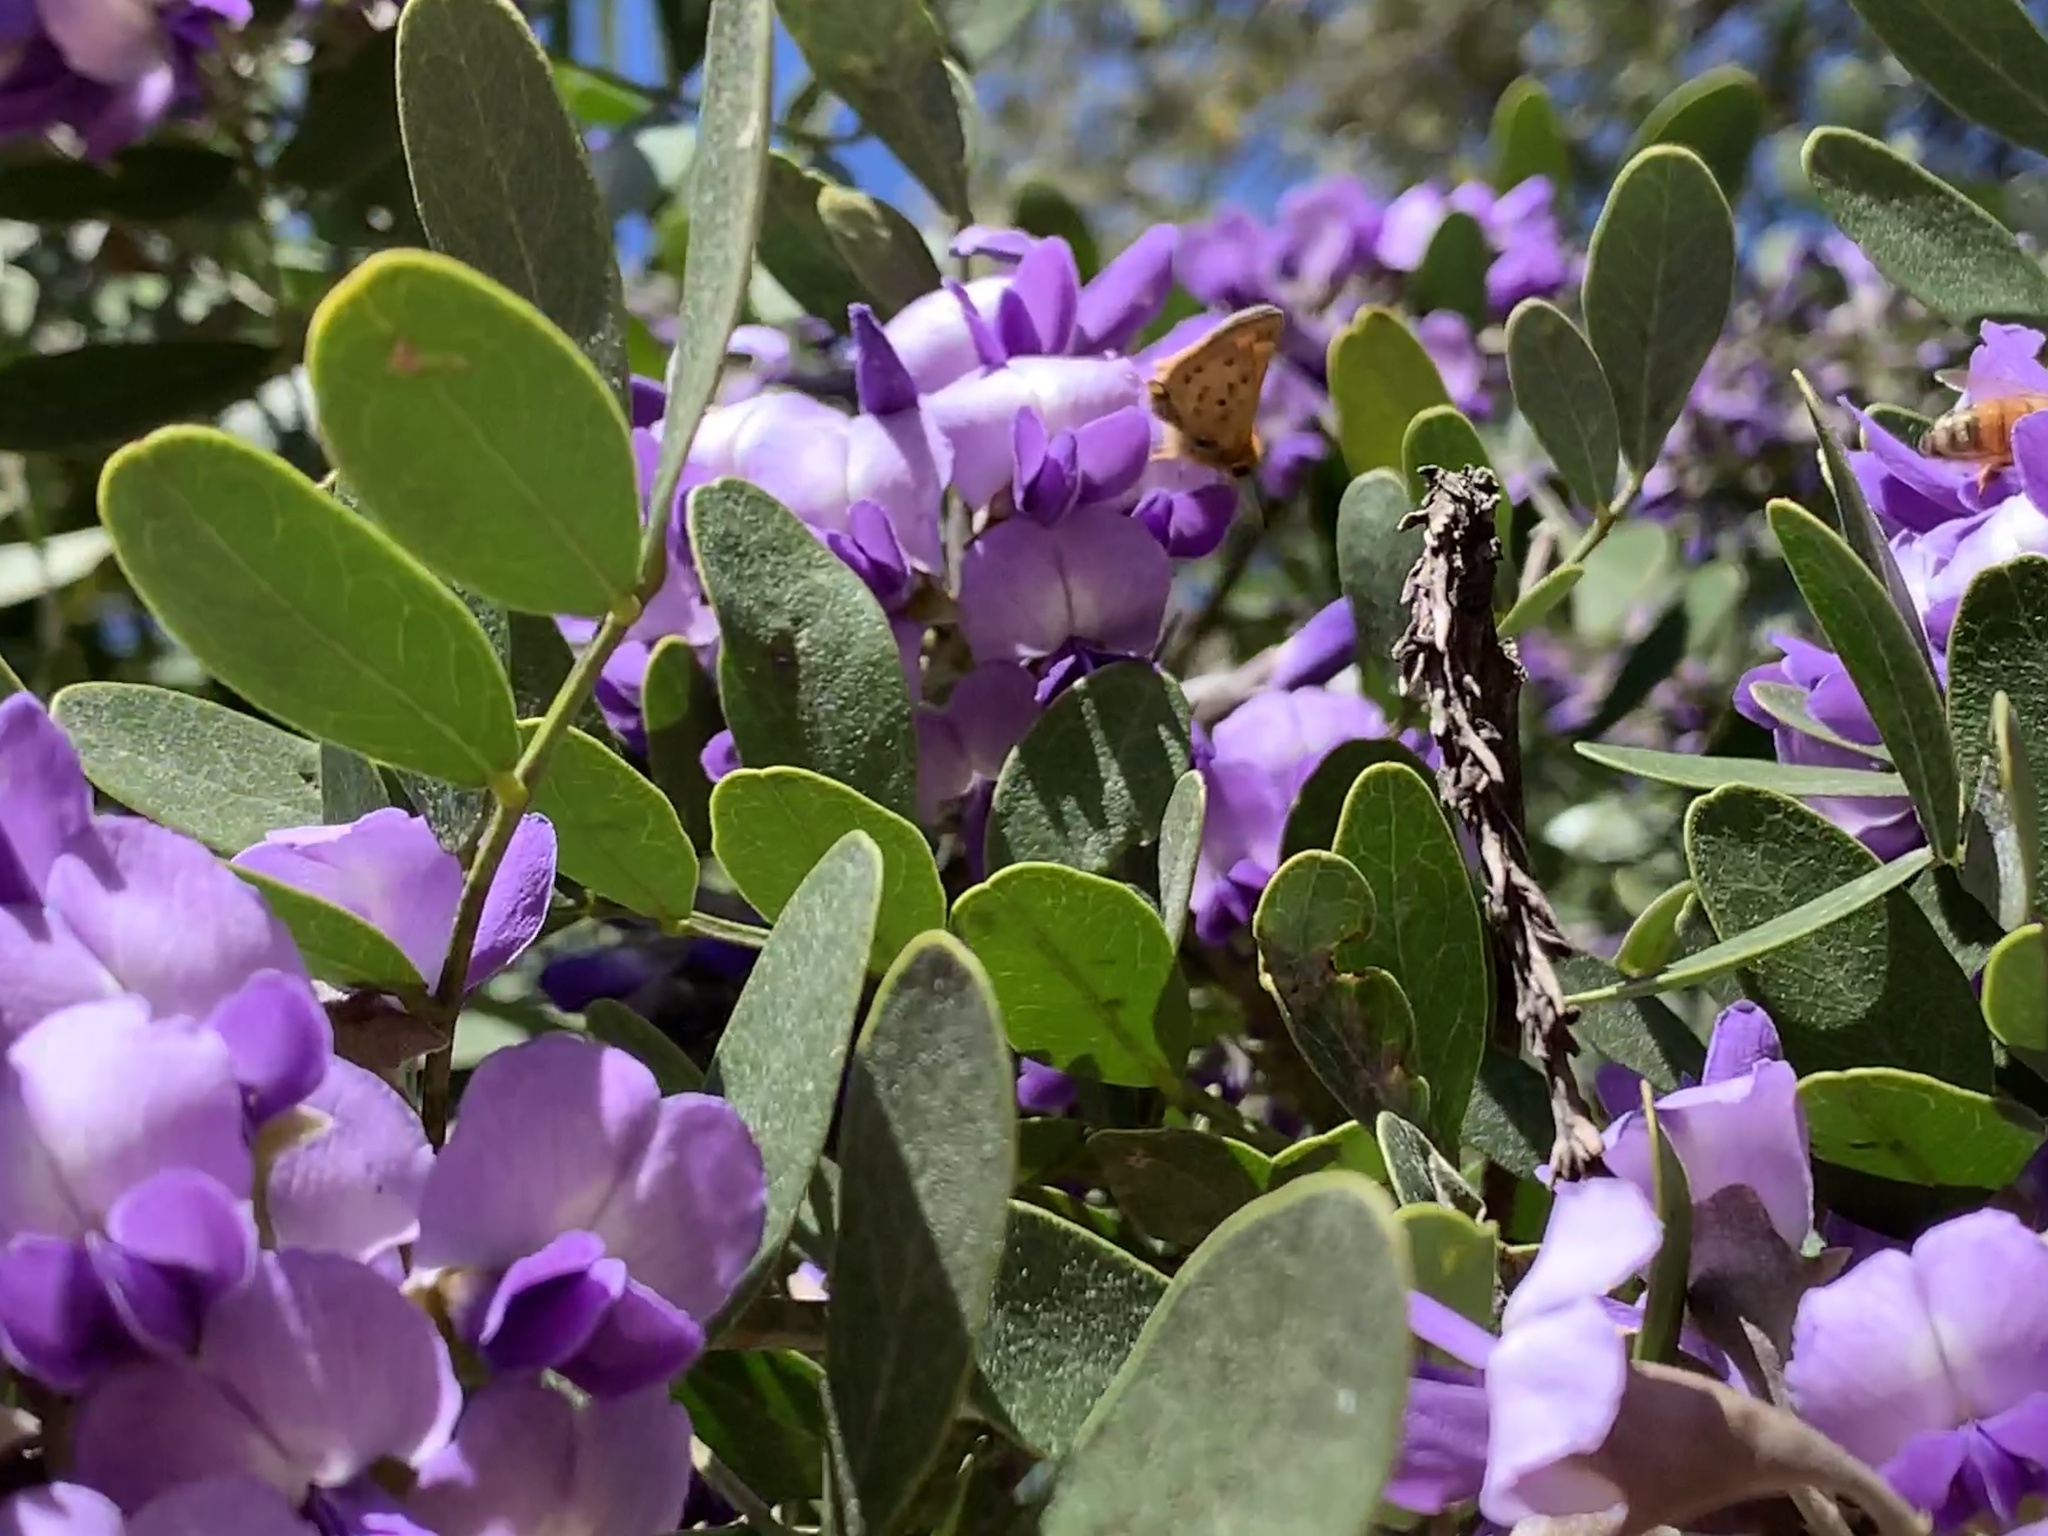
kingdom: Animalia
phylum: Arthropoda
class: Insecta
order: Lepidoptera
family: Hesperiidae
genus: Hylephila
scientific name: Hylephila phyleus
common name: Fiery skipper
